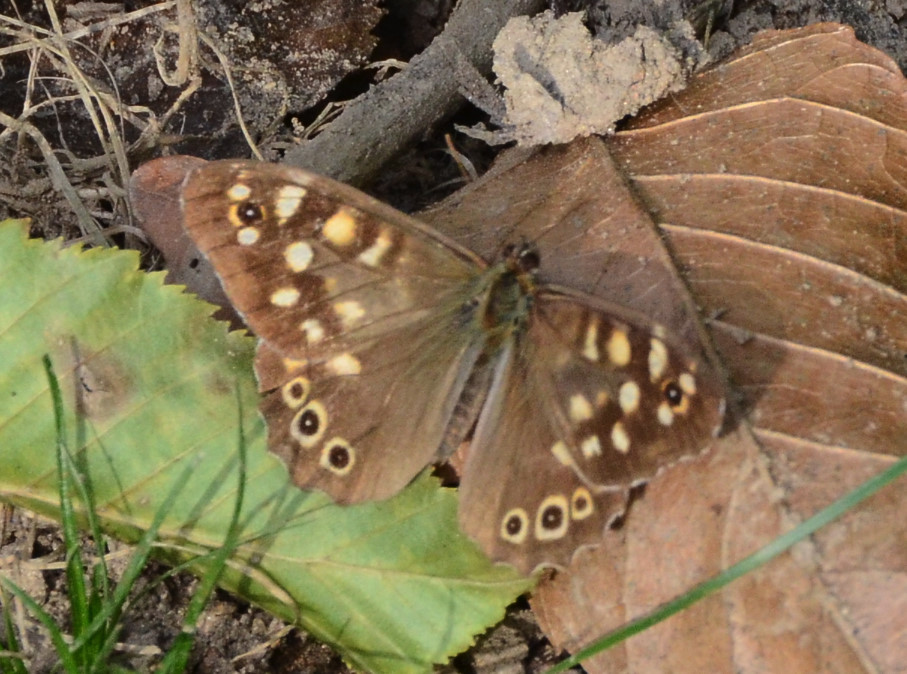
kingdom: Animalia
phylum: Arthropoda
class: Insecta
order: Lepidoptera
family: Nymphalidae
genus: Pararge
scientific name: Pararge aegeria
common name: Speckled wood
